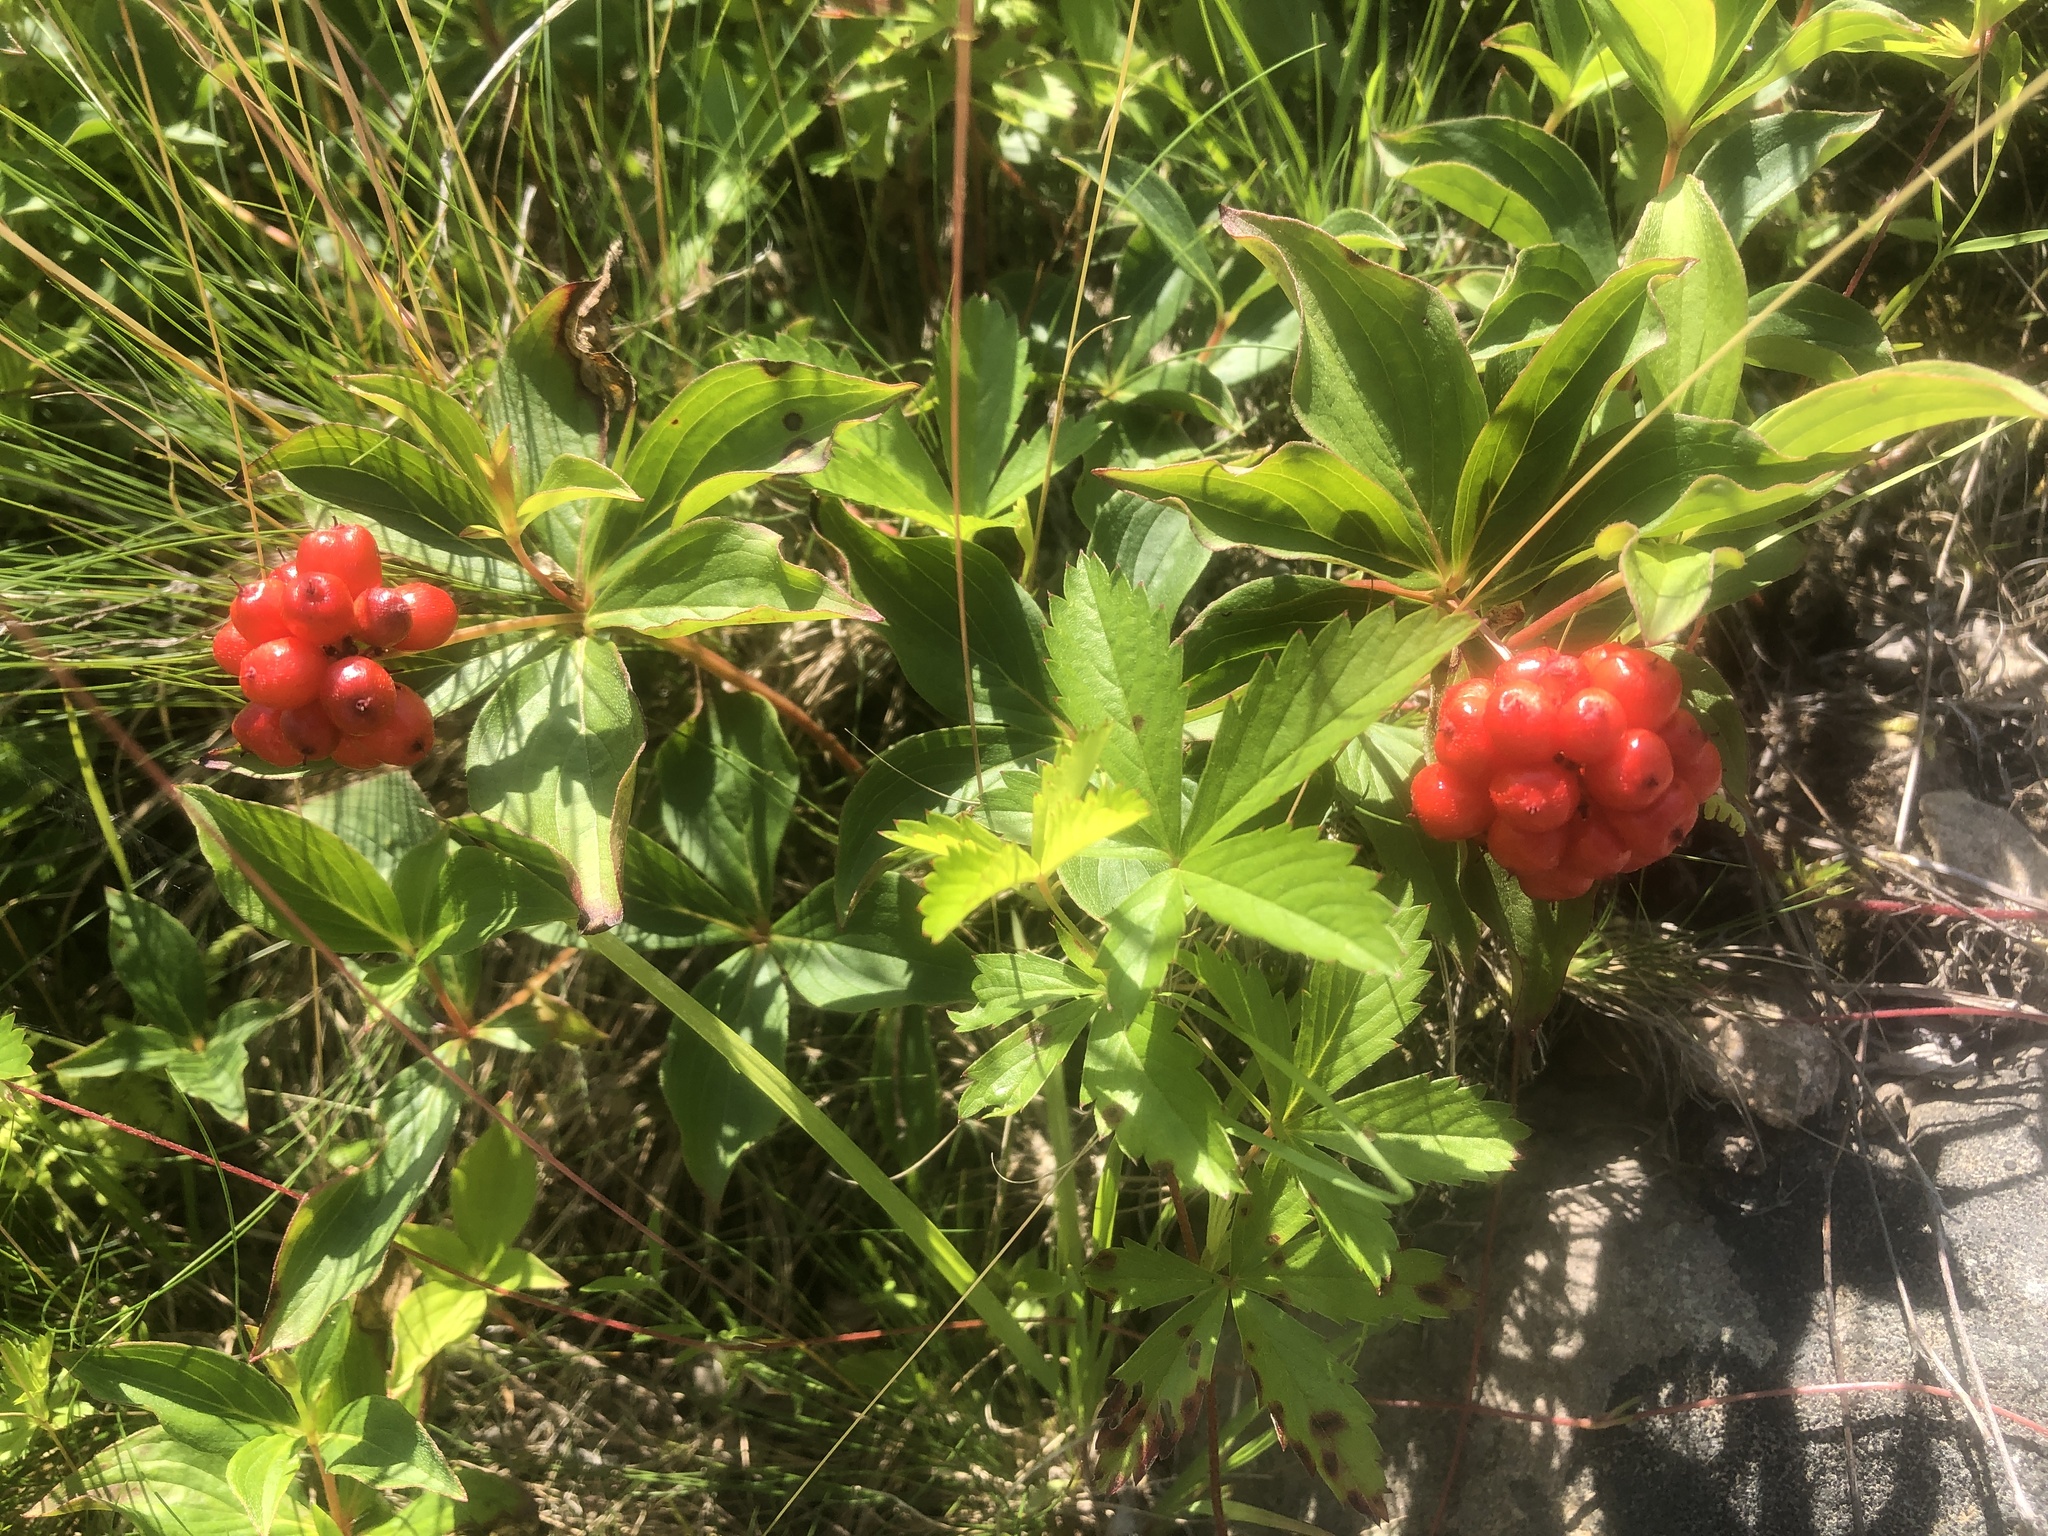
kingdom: Plantae
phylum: Tracheophyta
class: Magnoliopsida
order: Cornales
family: Cornaceae
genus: Cornus
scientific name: Cornus canadensis
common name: Creeping dogwood
